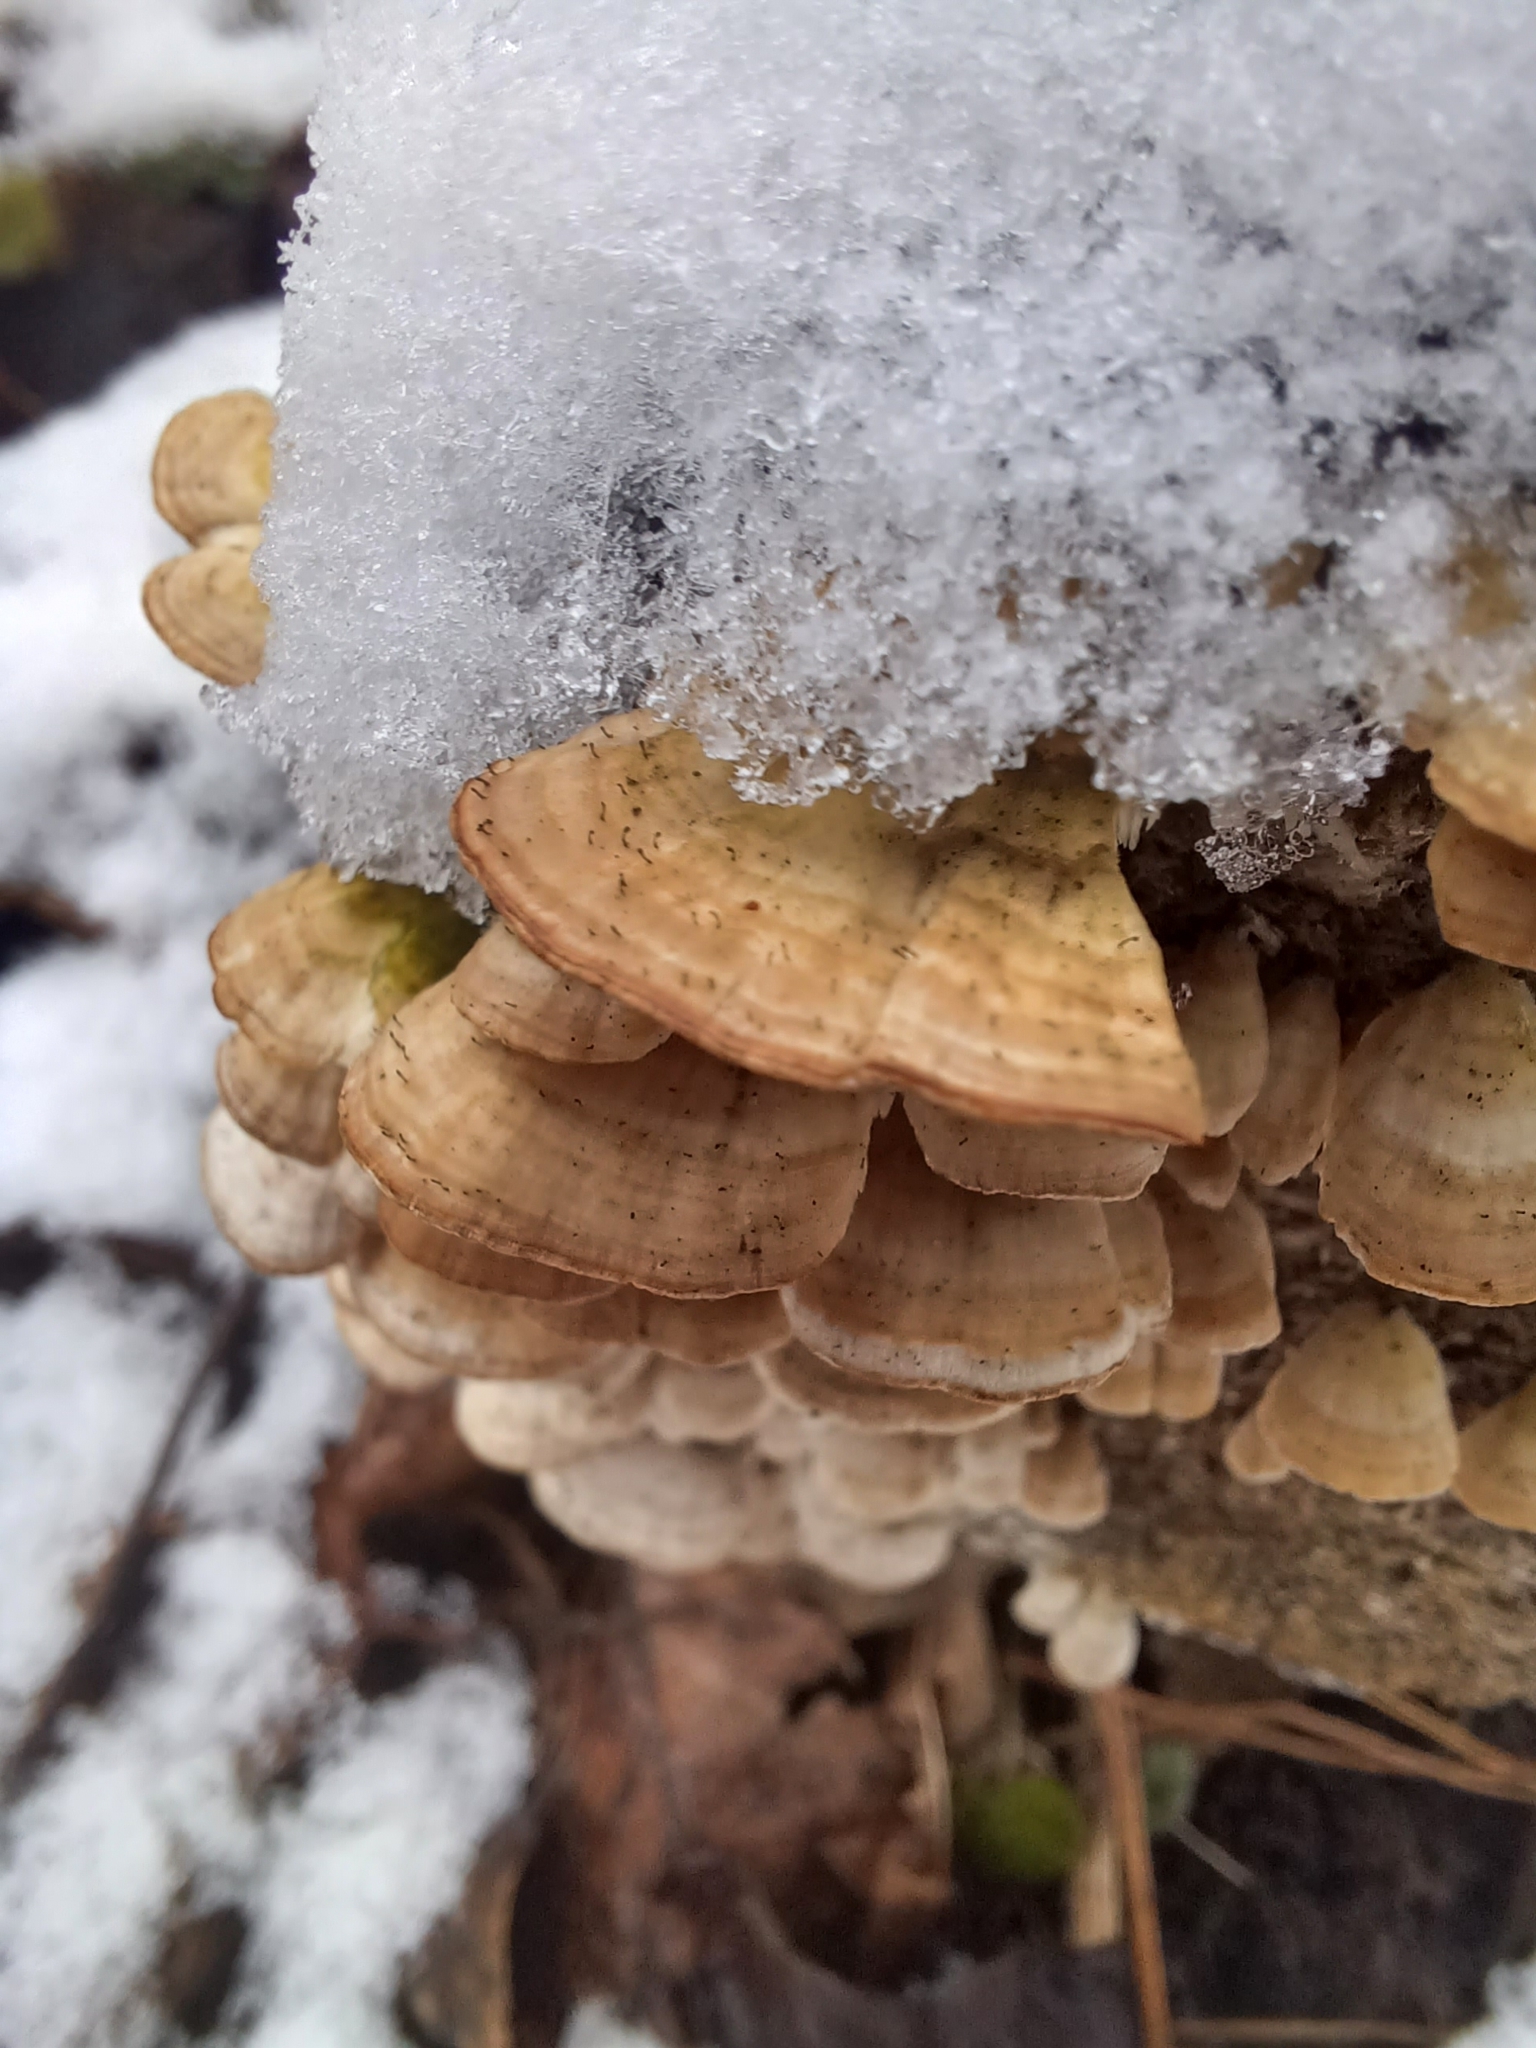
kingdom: Fungi
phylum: Basidiomycota
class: Agaricomycetes
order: Hymenochaetales
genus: Trichaptum
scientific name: Trichaptum biforme
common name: Violet-toothed polypore
